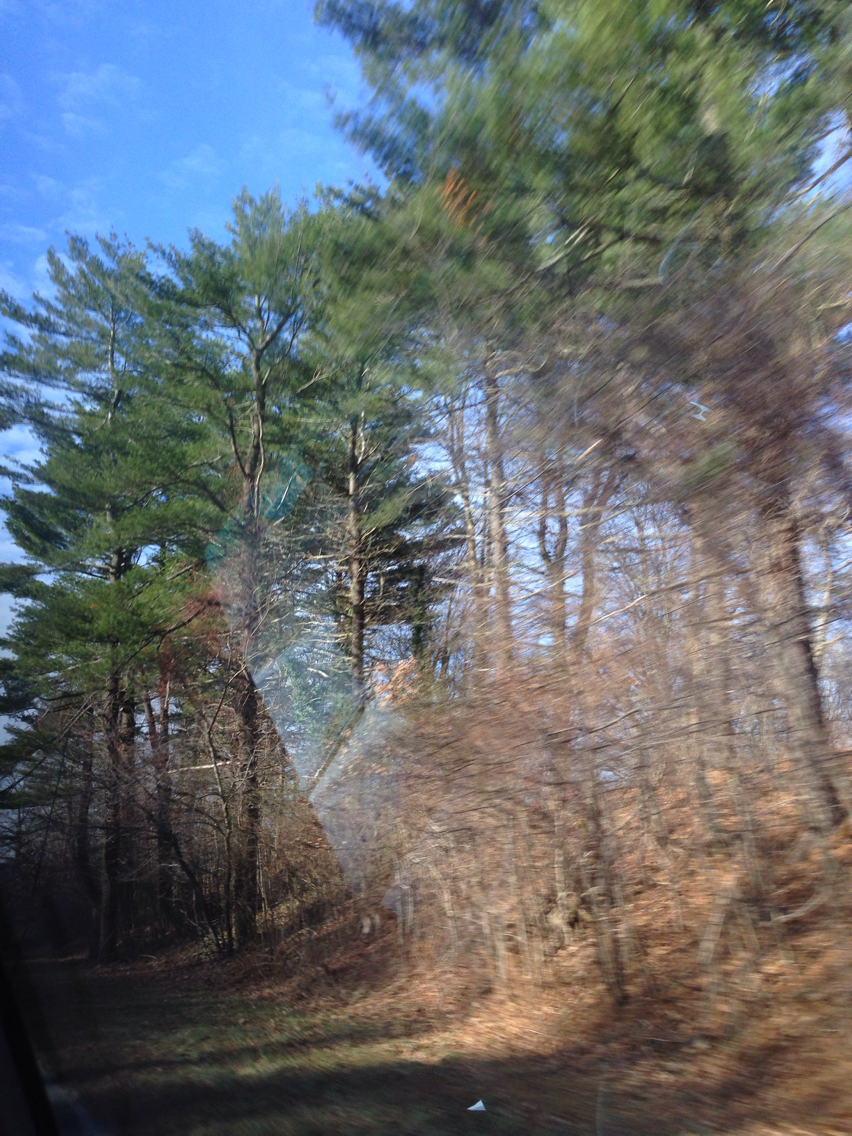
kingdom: Plantae
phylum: Tracheophyta
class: Pinopsida
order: Pinales
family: Pinaceae
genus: Pinus
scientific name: Pinus strobus
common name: Weymouth pine
